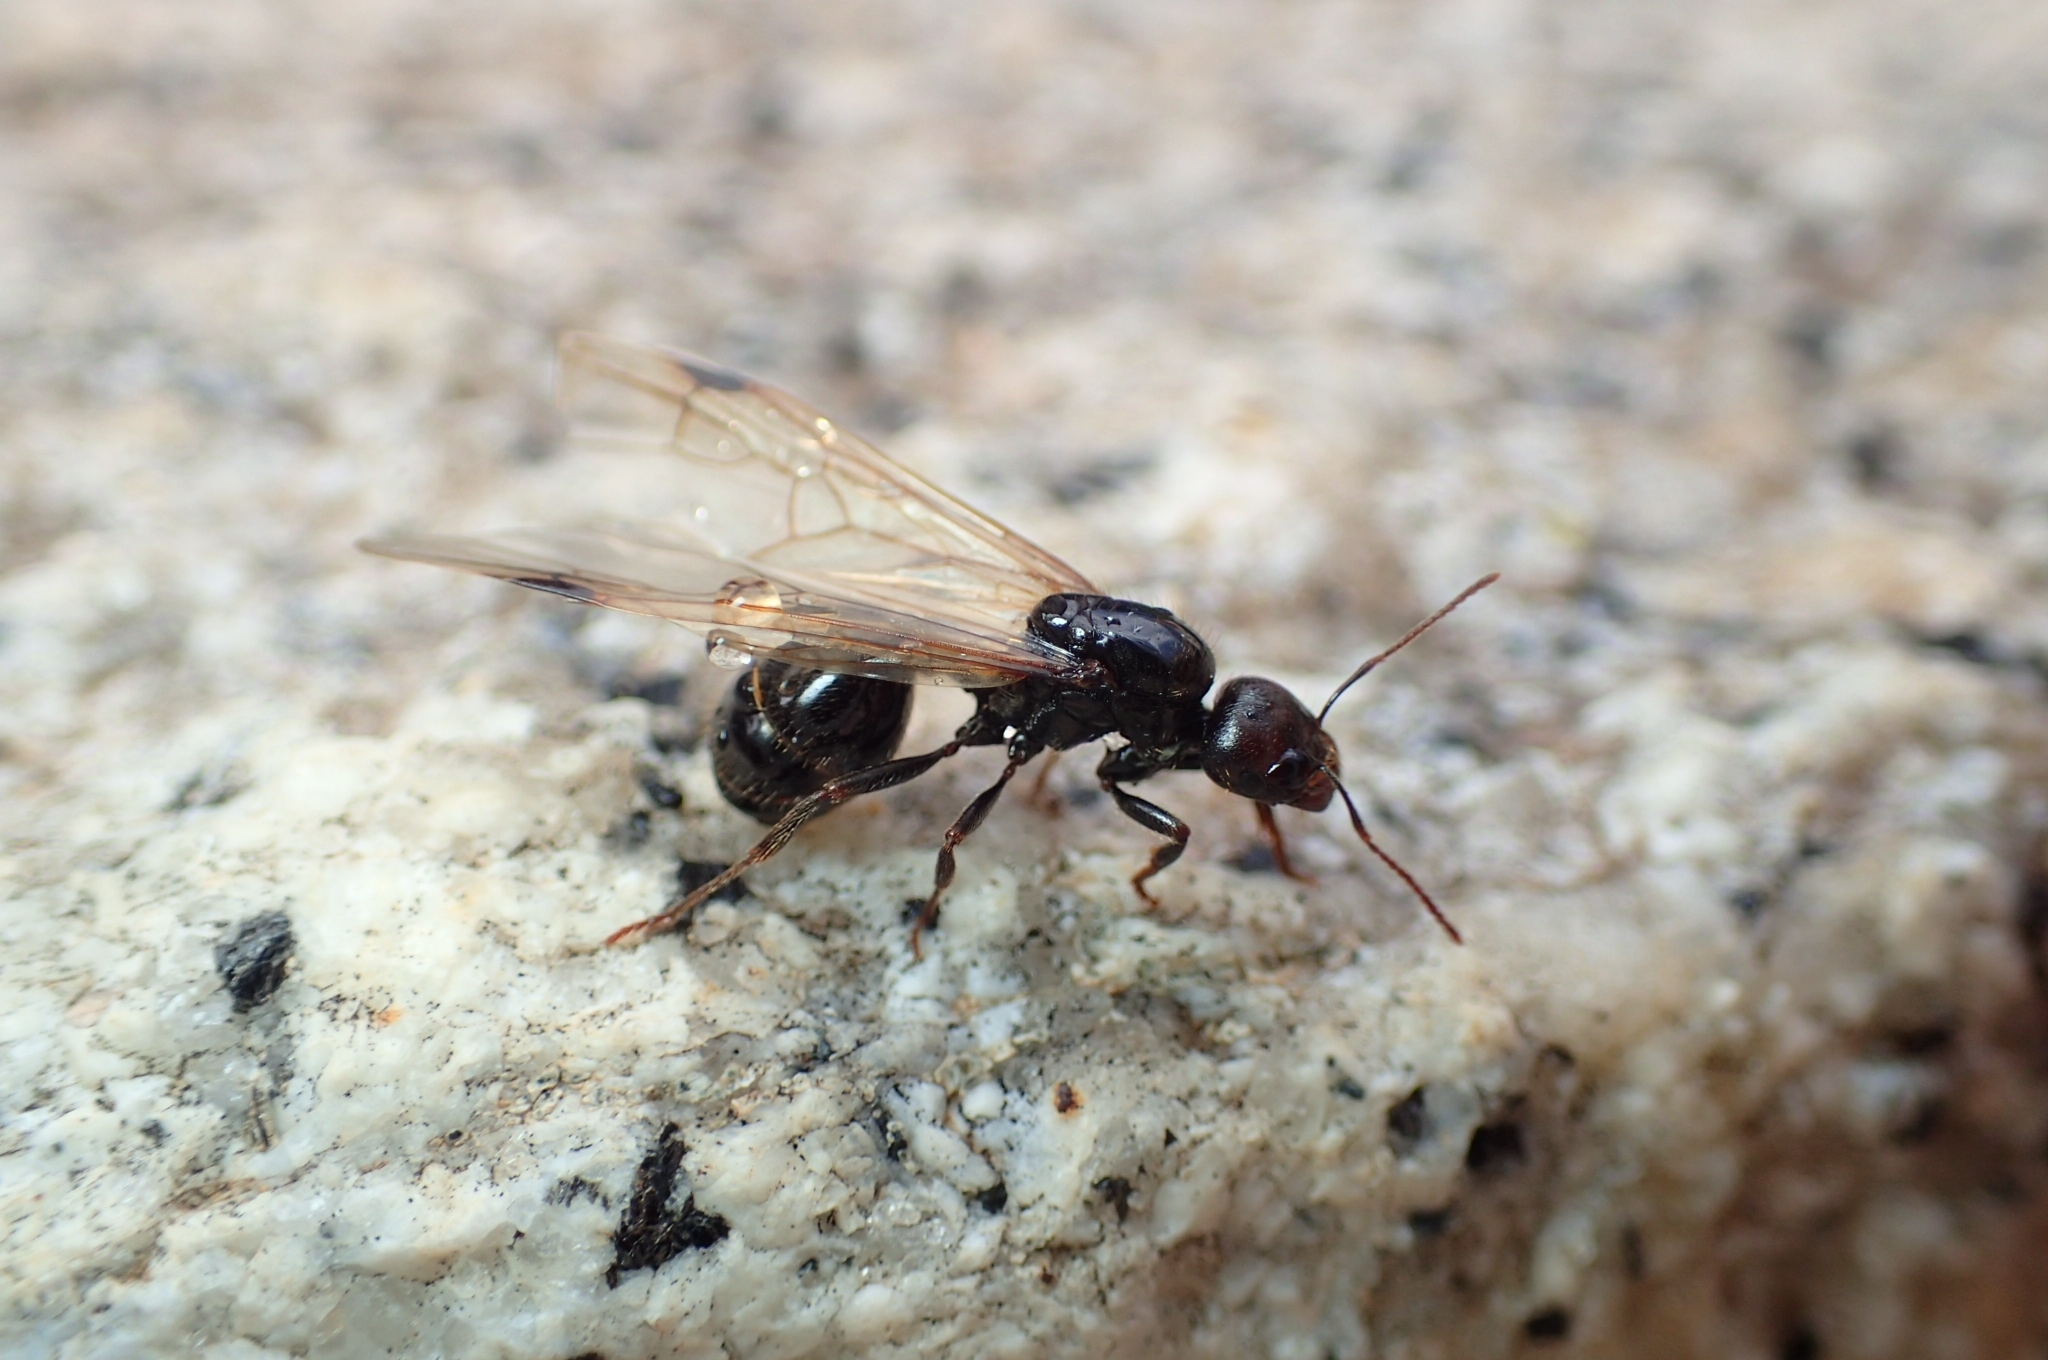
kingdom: Animalia
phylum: Arthropoda
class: Insecta
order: Hymenoptera
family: Formicidae
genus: Messor
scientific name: Messor barbarus
